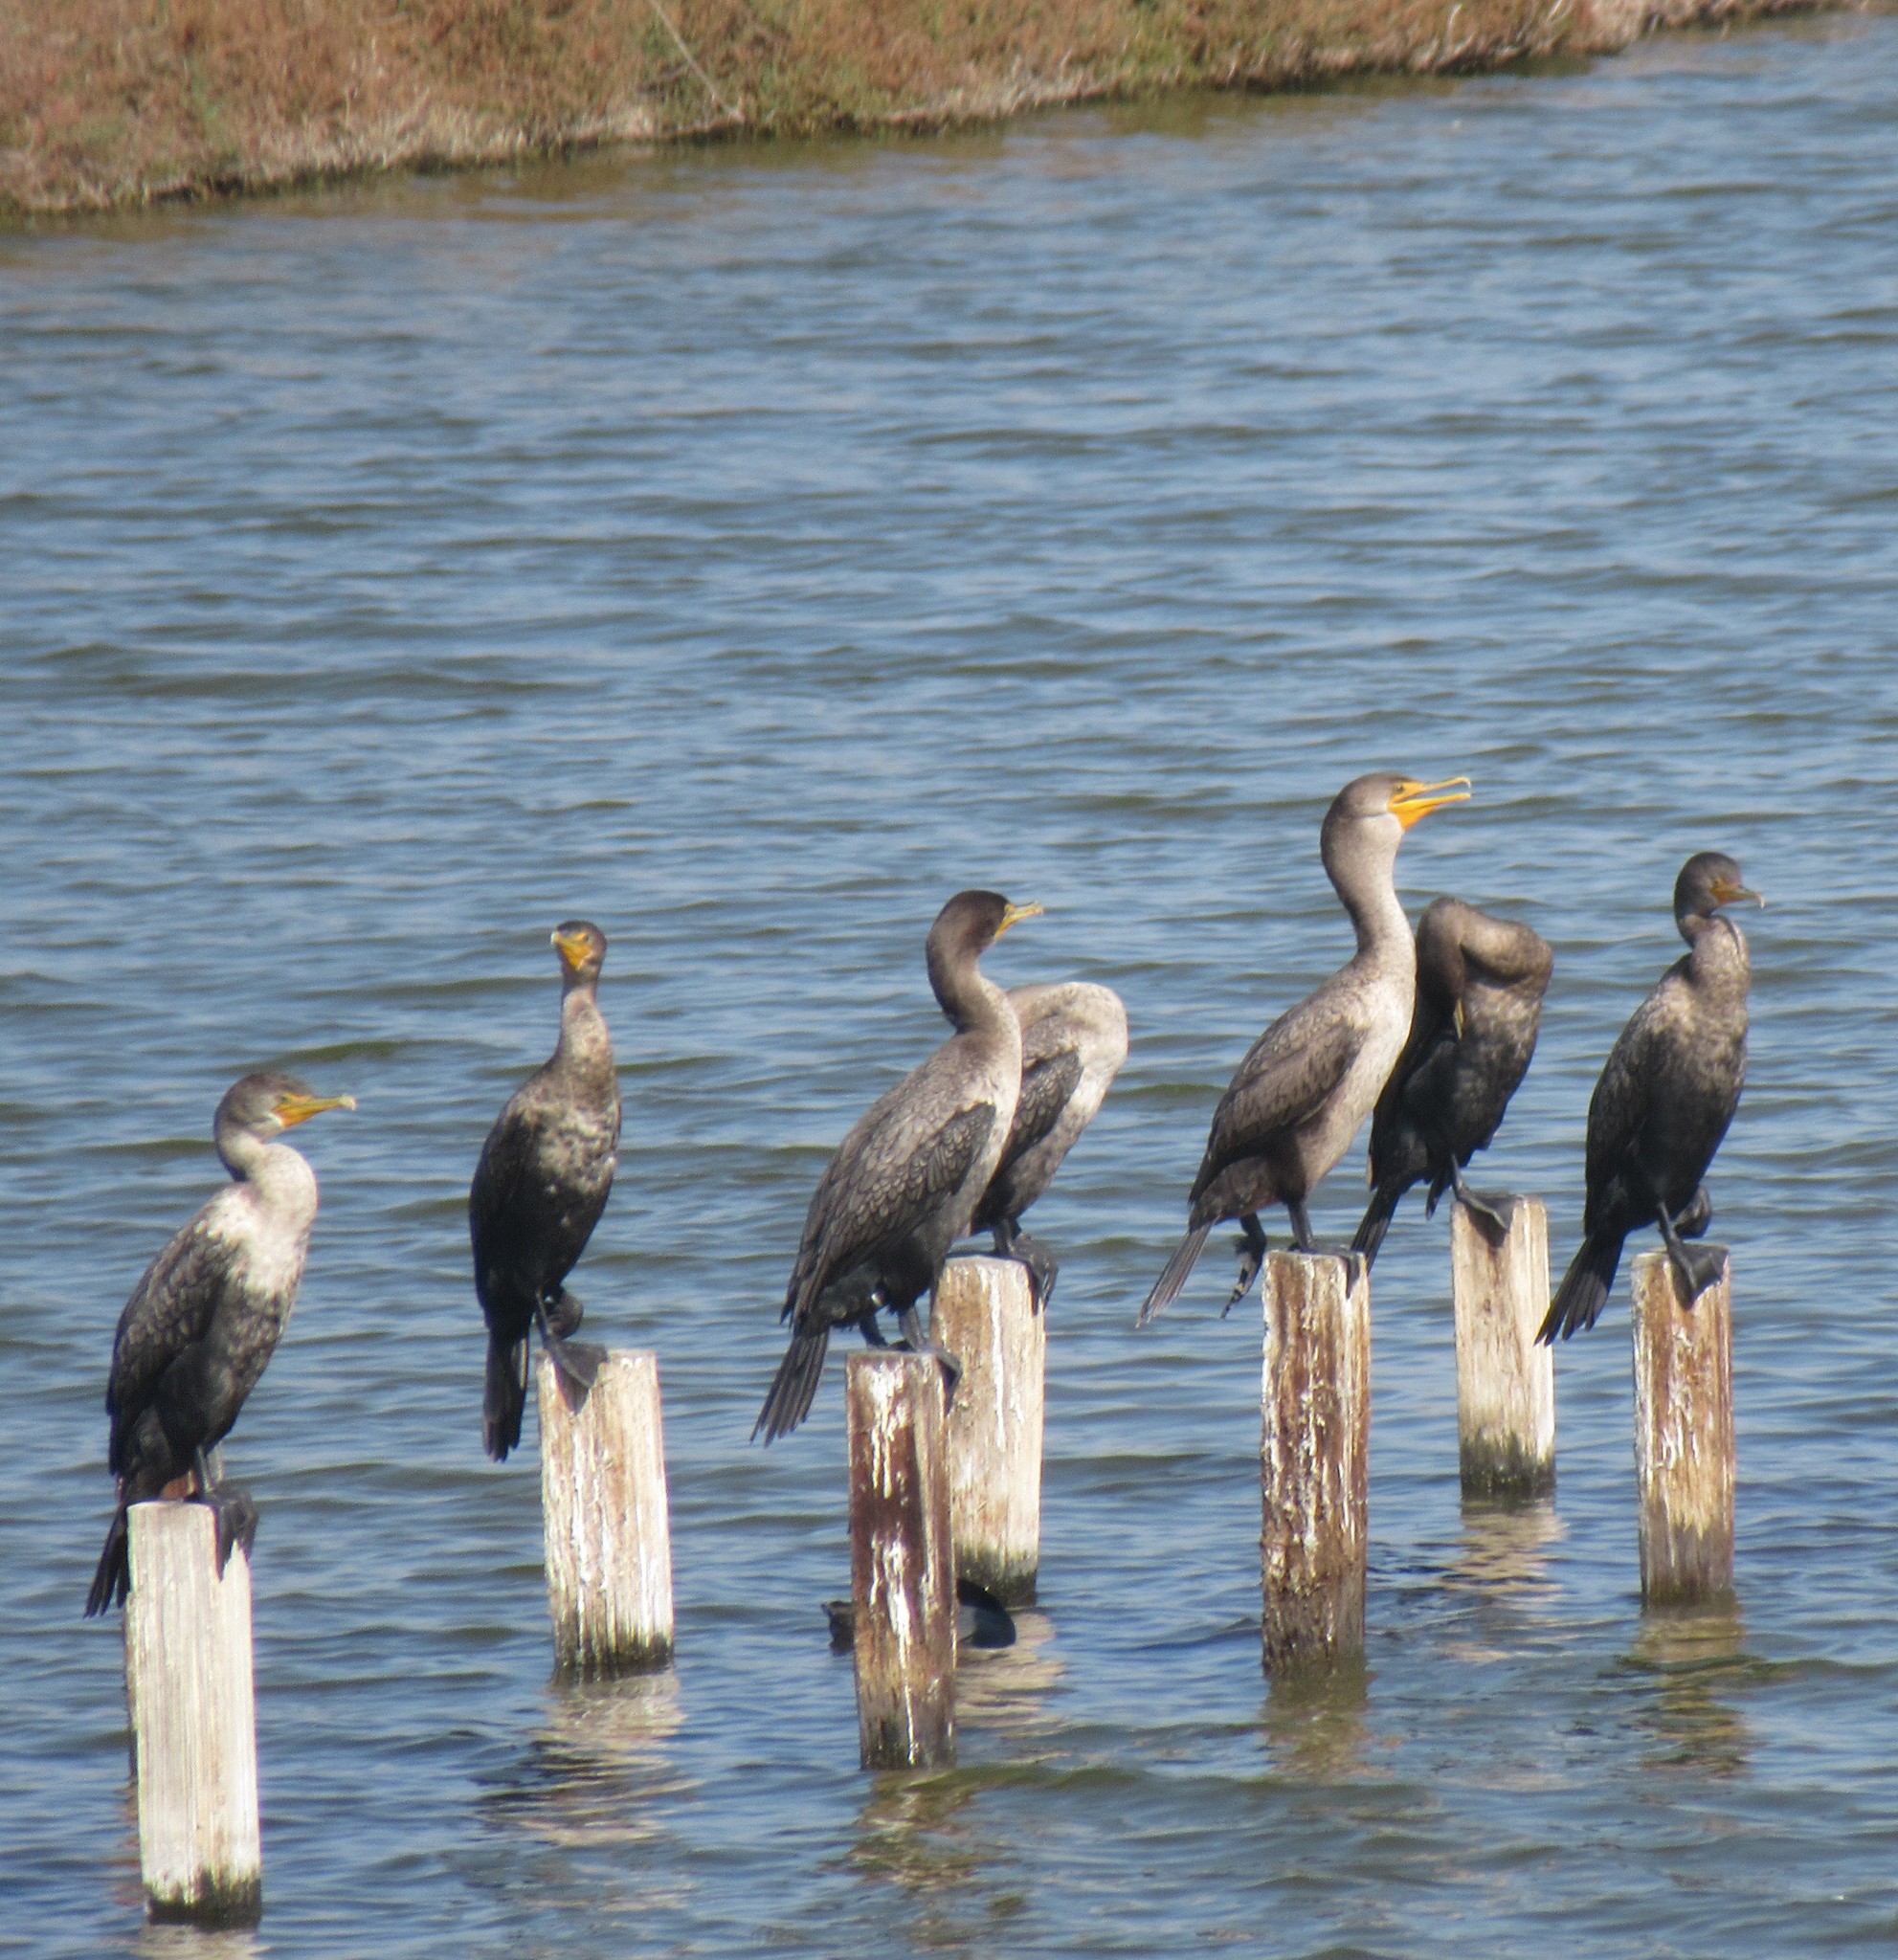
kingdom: Animalia
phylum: Chordata
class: Aves
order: Suliformes
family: Phalacrocoracidae
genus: Phalacrocorax
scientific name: Phalacrocorax auritus
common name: Double-crested cormorant
